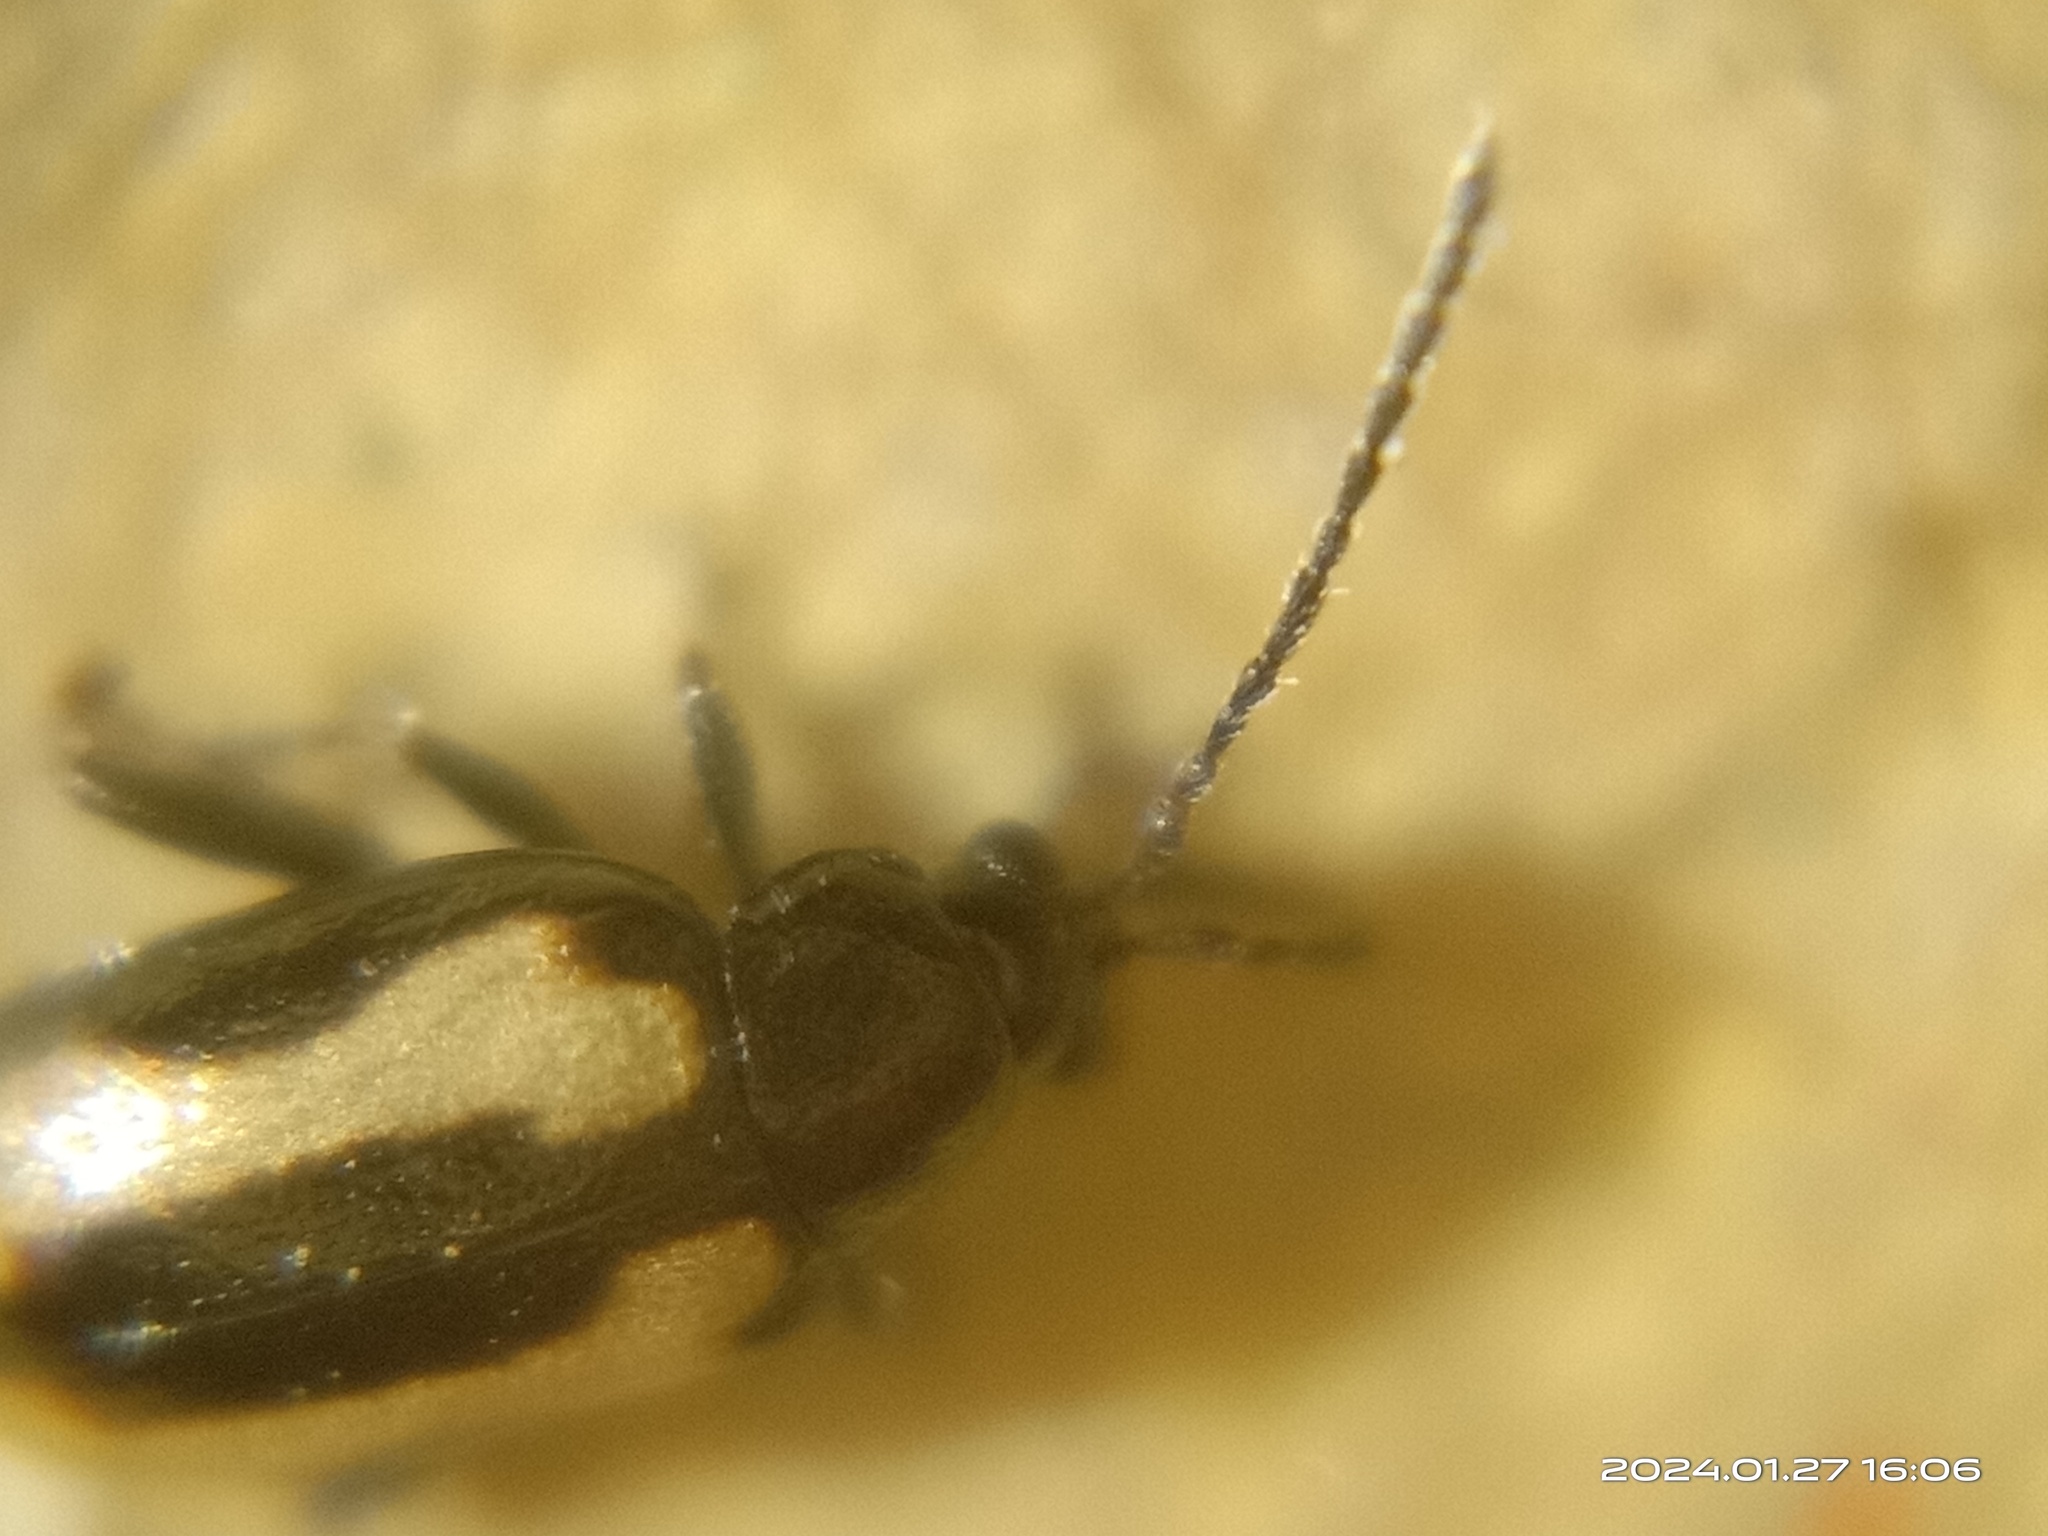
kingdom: Animalia
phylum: Arthropoda
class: Insecta
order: Coleoptera
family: Chrysomelidae
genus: Phyllotreta
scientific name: Phyllotreta striolata
